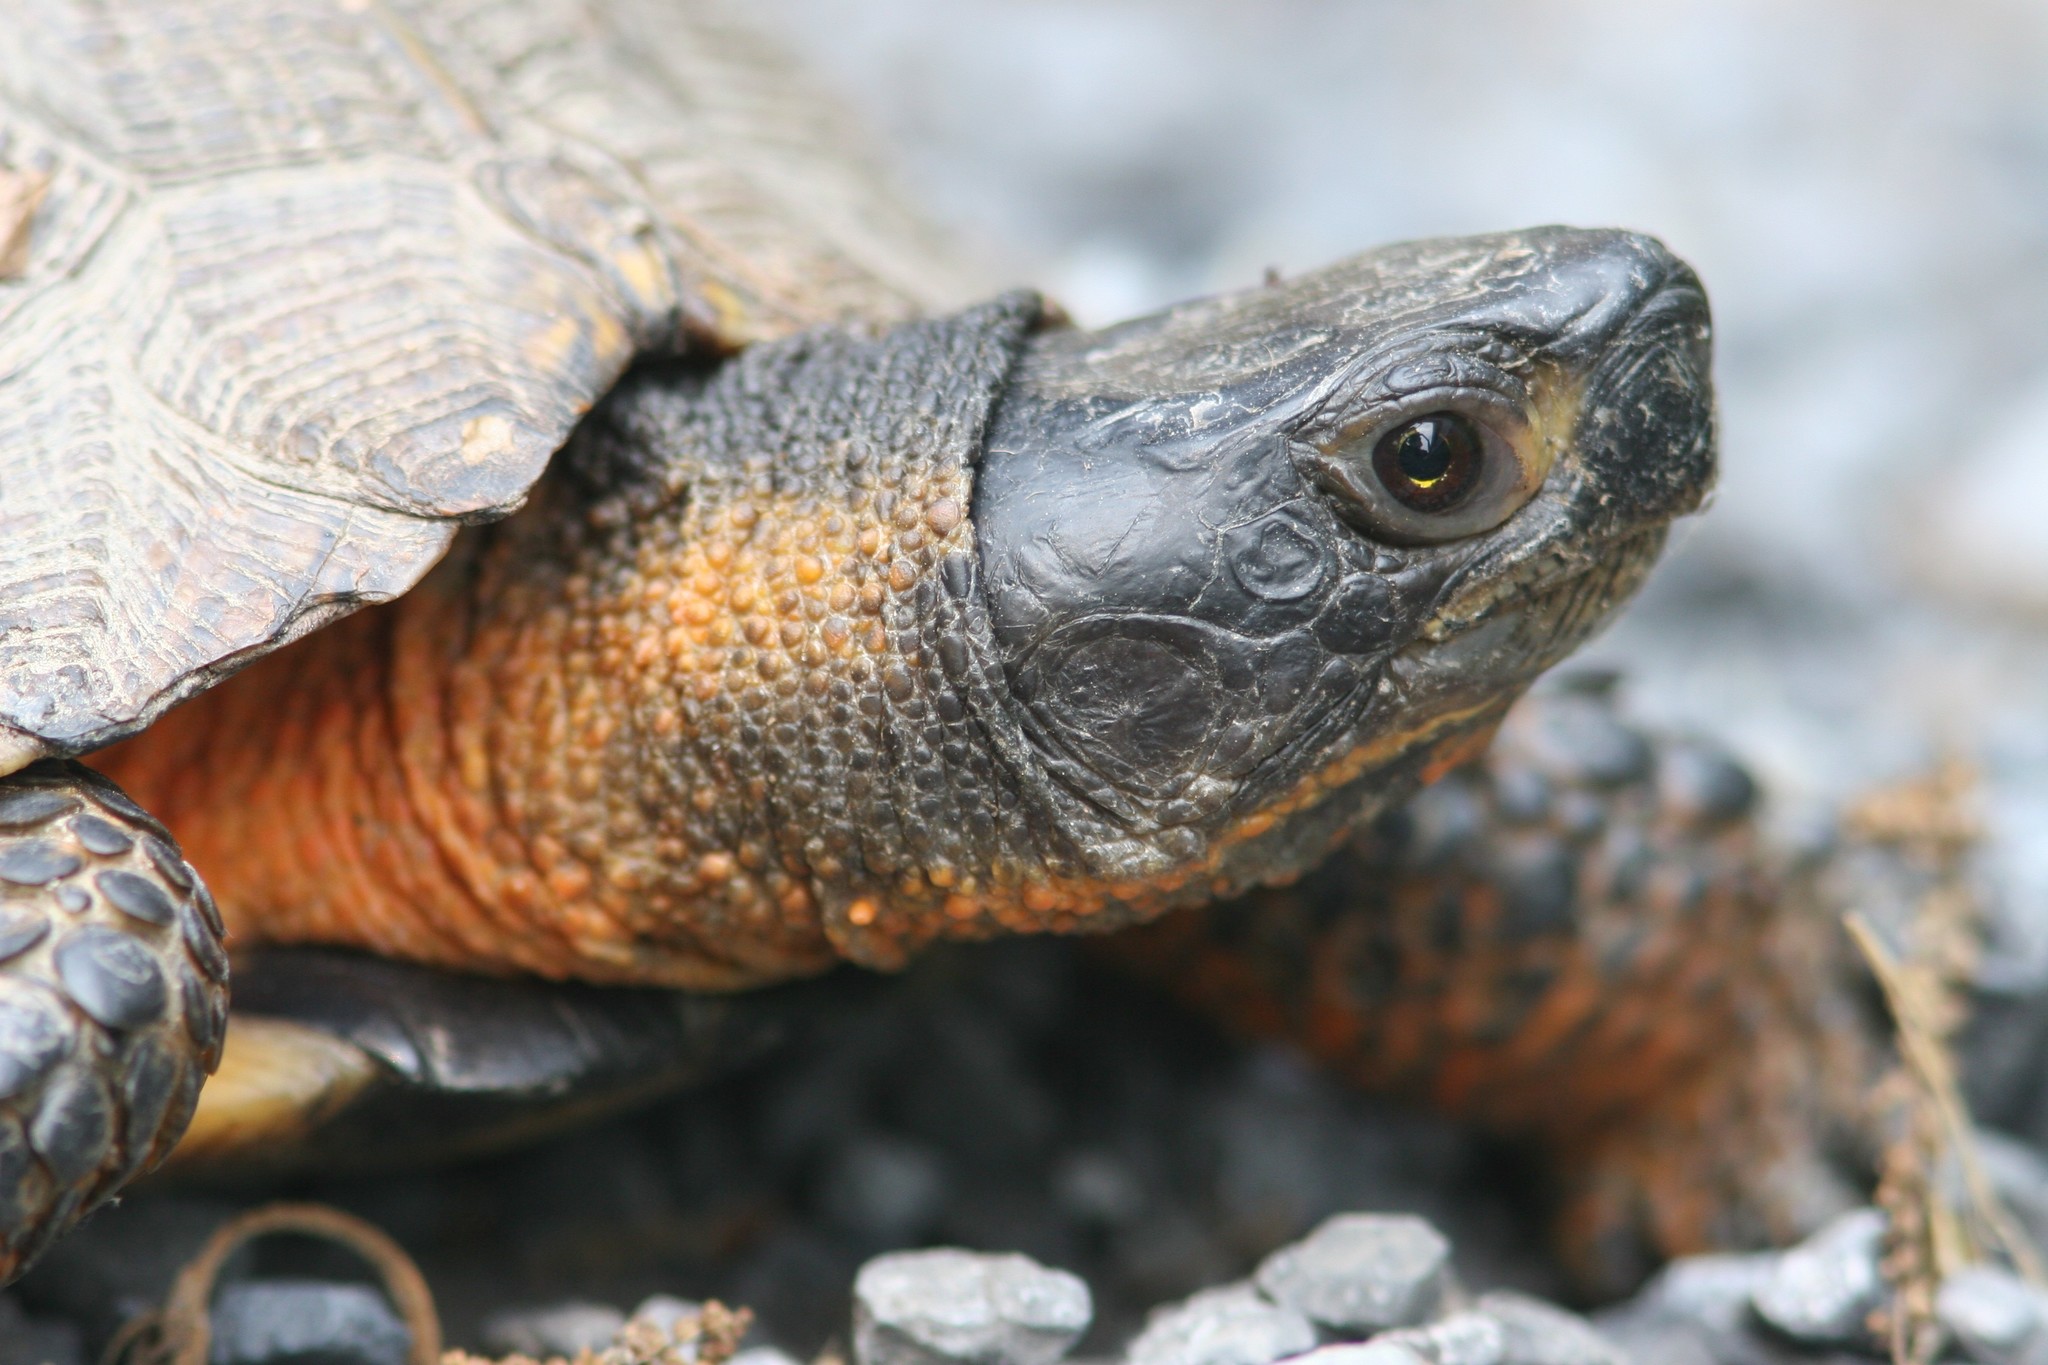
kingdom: Animalia
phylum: Chordata
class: Testudines
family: Emydidae
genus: Glyptemys
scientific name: Glyptemys insculpta
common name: Wood turtle
